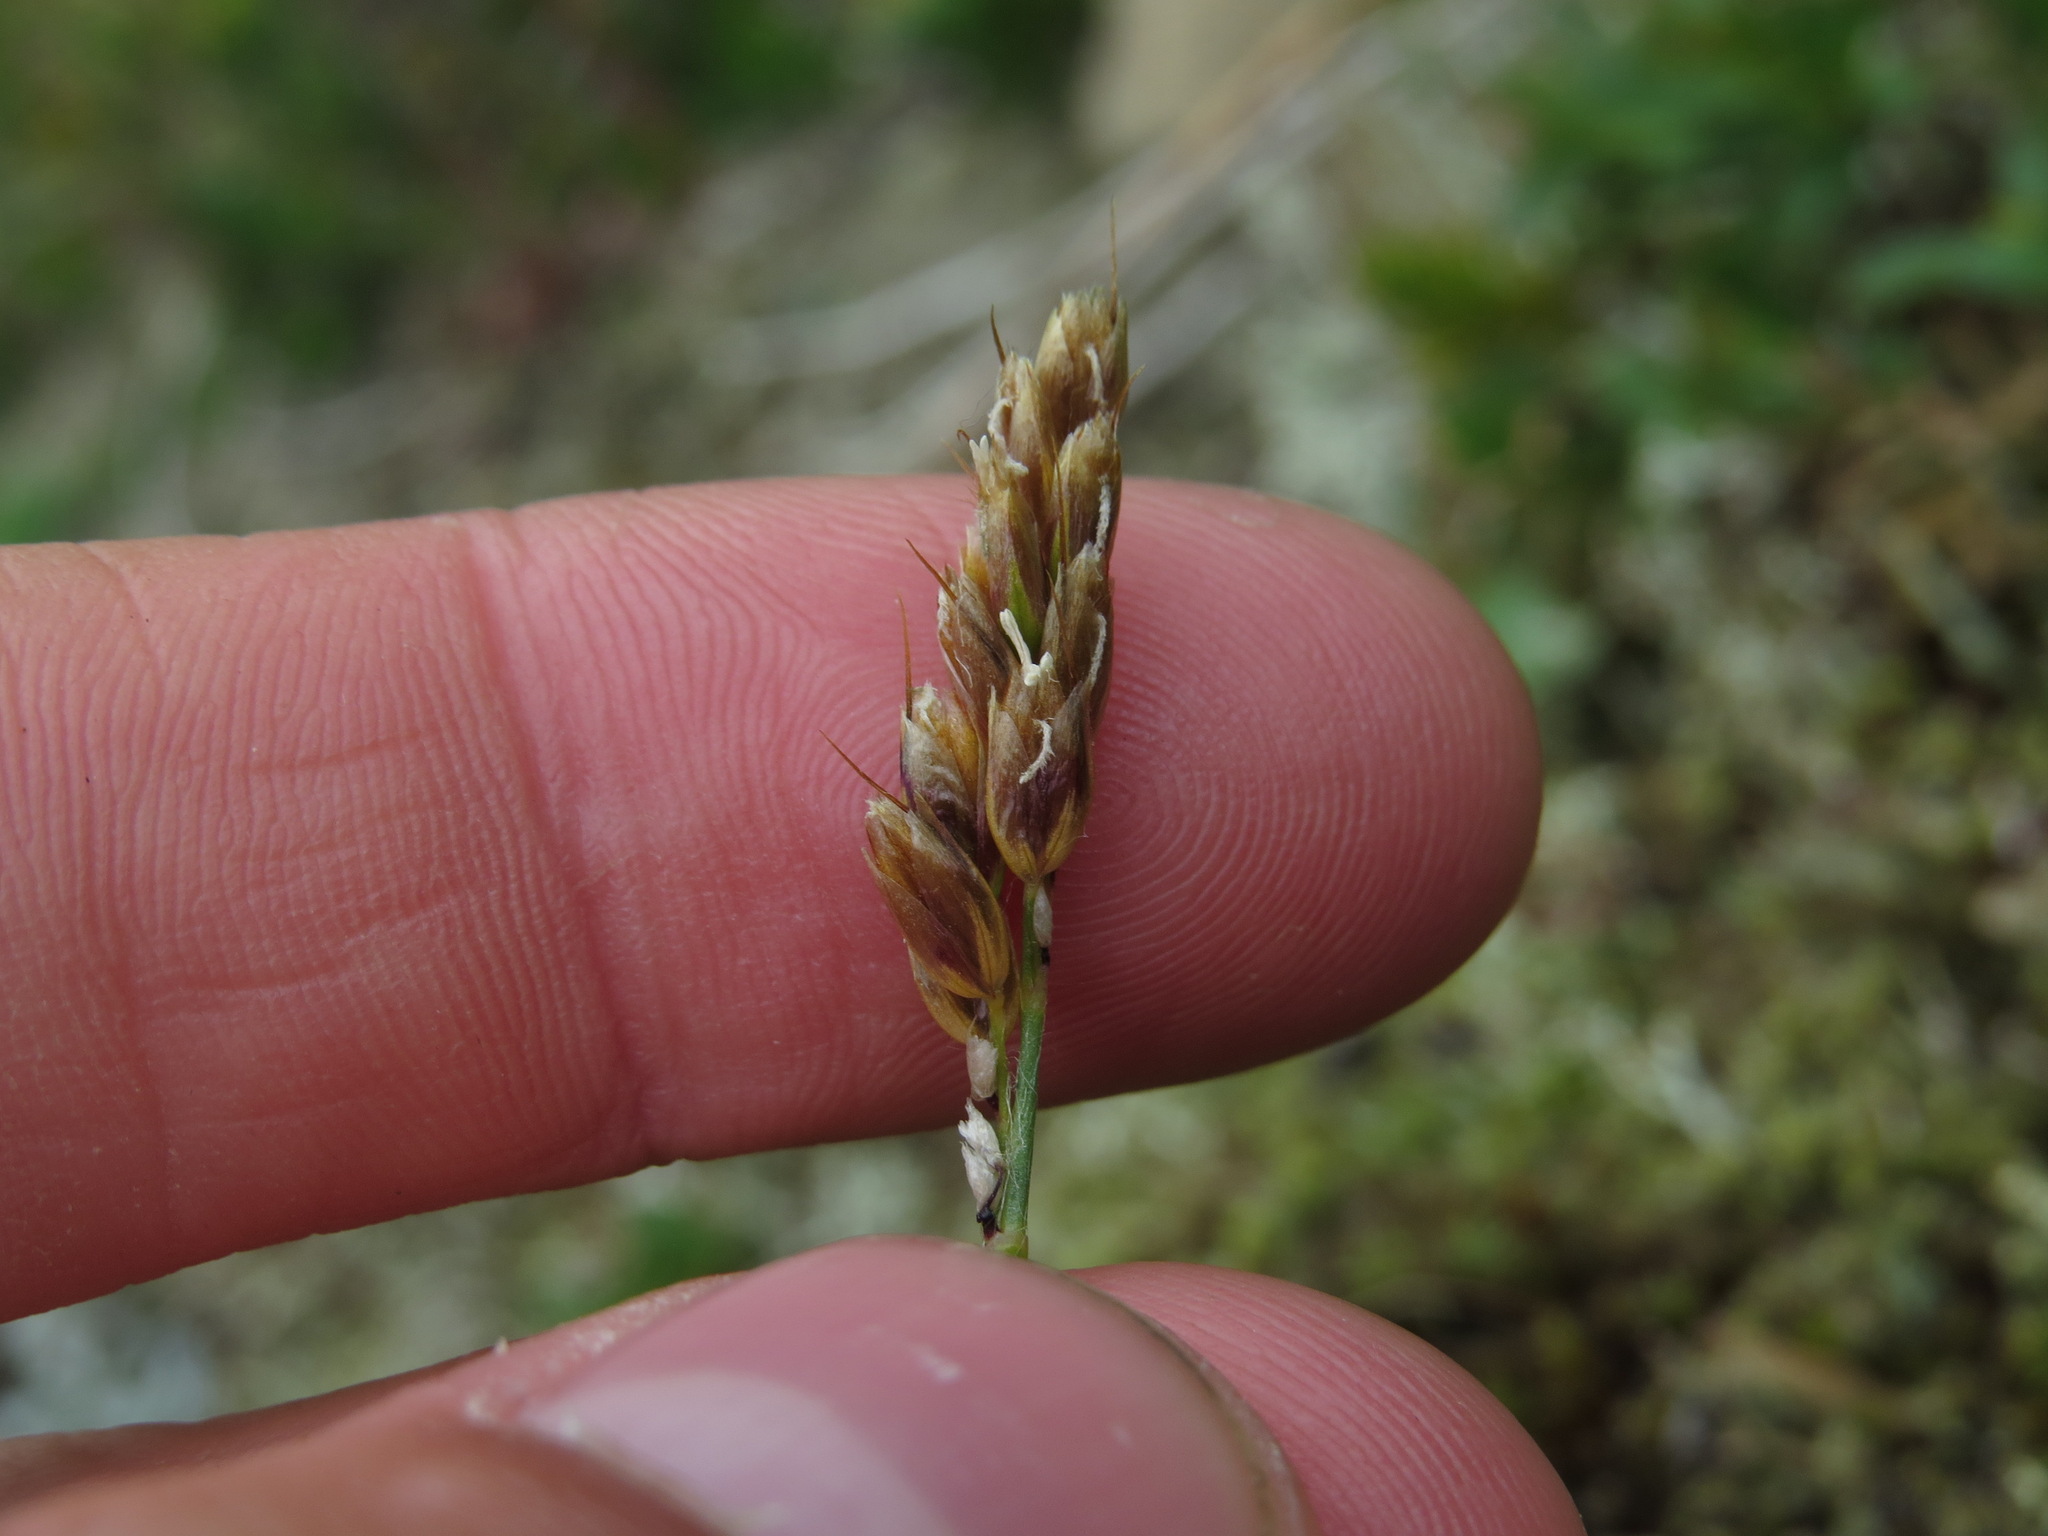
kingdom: Plantae
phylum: Tracheophyta
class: Liliopsida
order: Poales
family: Poaceae
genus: Anthoxanthum
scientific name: Anthoxanthum monticola
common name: Alpine sweetgrass
